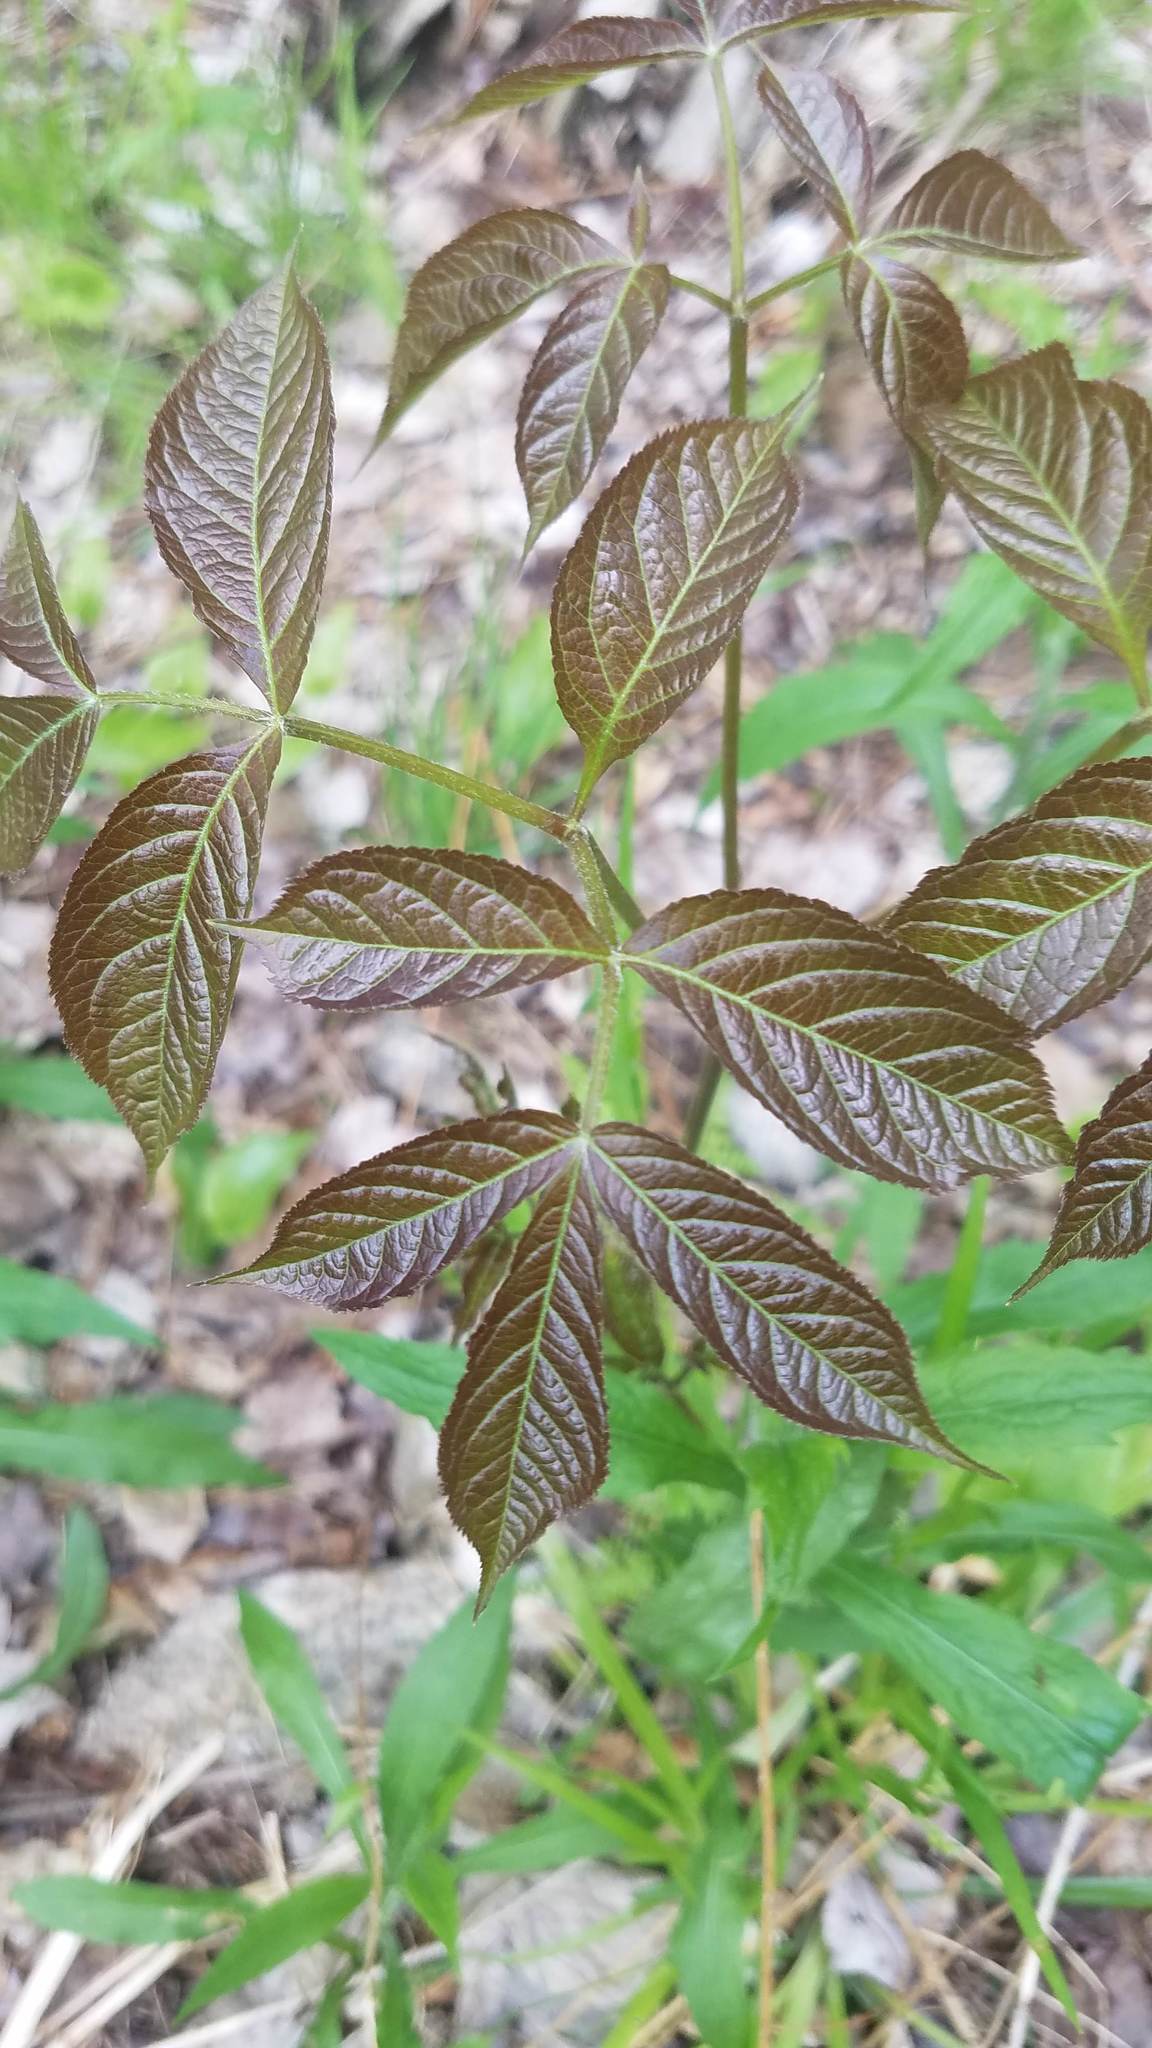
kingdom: Plantae
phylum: Tracheophyta
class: Magnoliopsida
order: Apiales
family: Araliaceae
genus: Aralia
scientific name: Aralia nudicaulis
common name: Wild sarsaparilla
